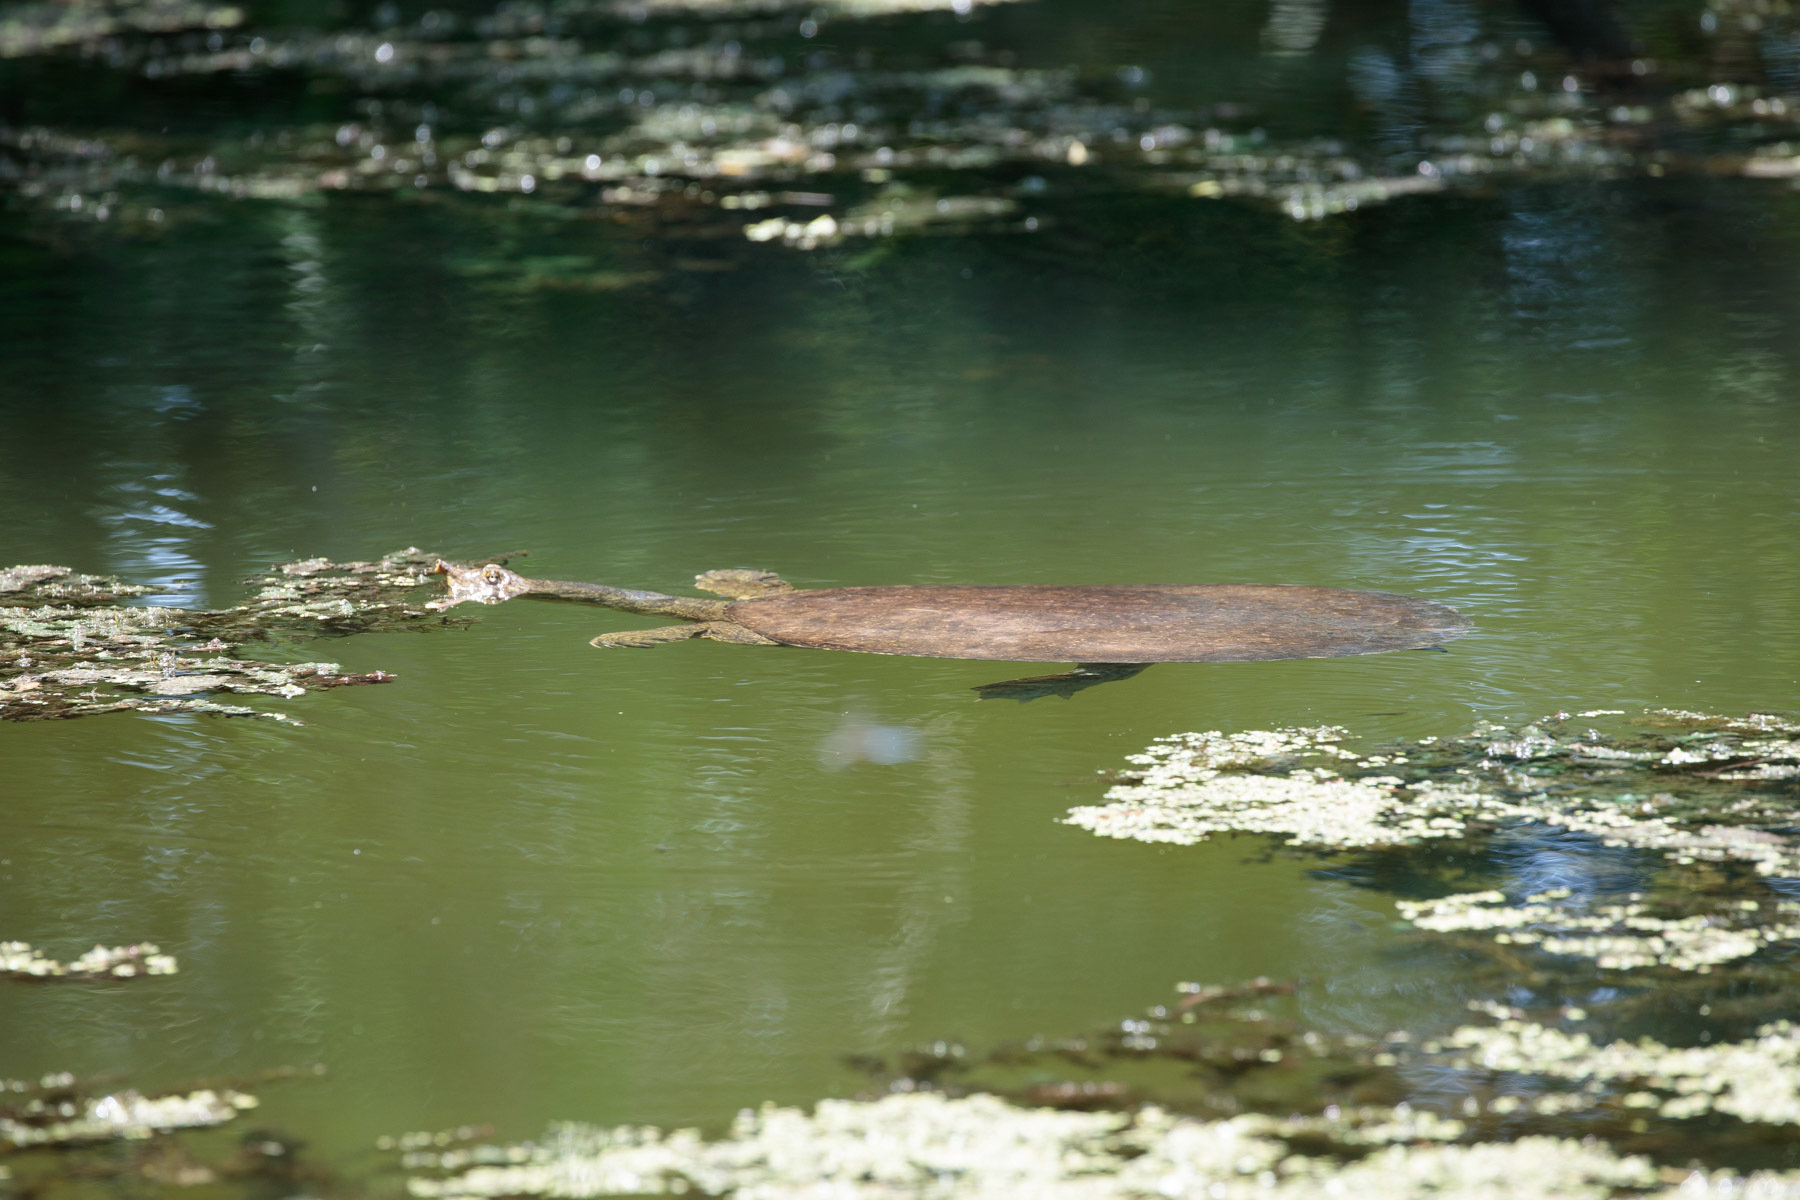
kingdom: Animalia
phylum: Chordata
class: Testudines
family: Trionychidae
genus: Apalone
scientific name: Apalone spinifera
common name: Spiny softshell turtle
